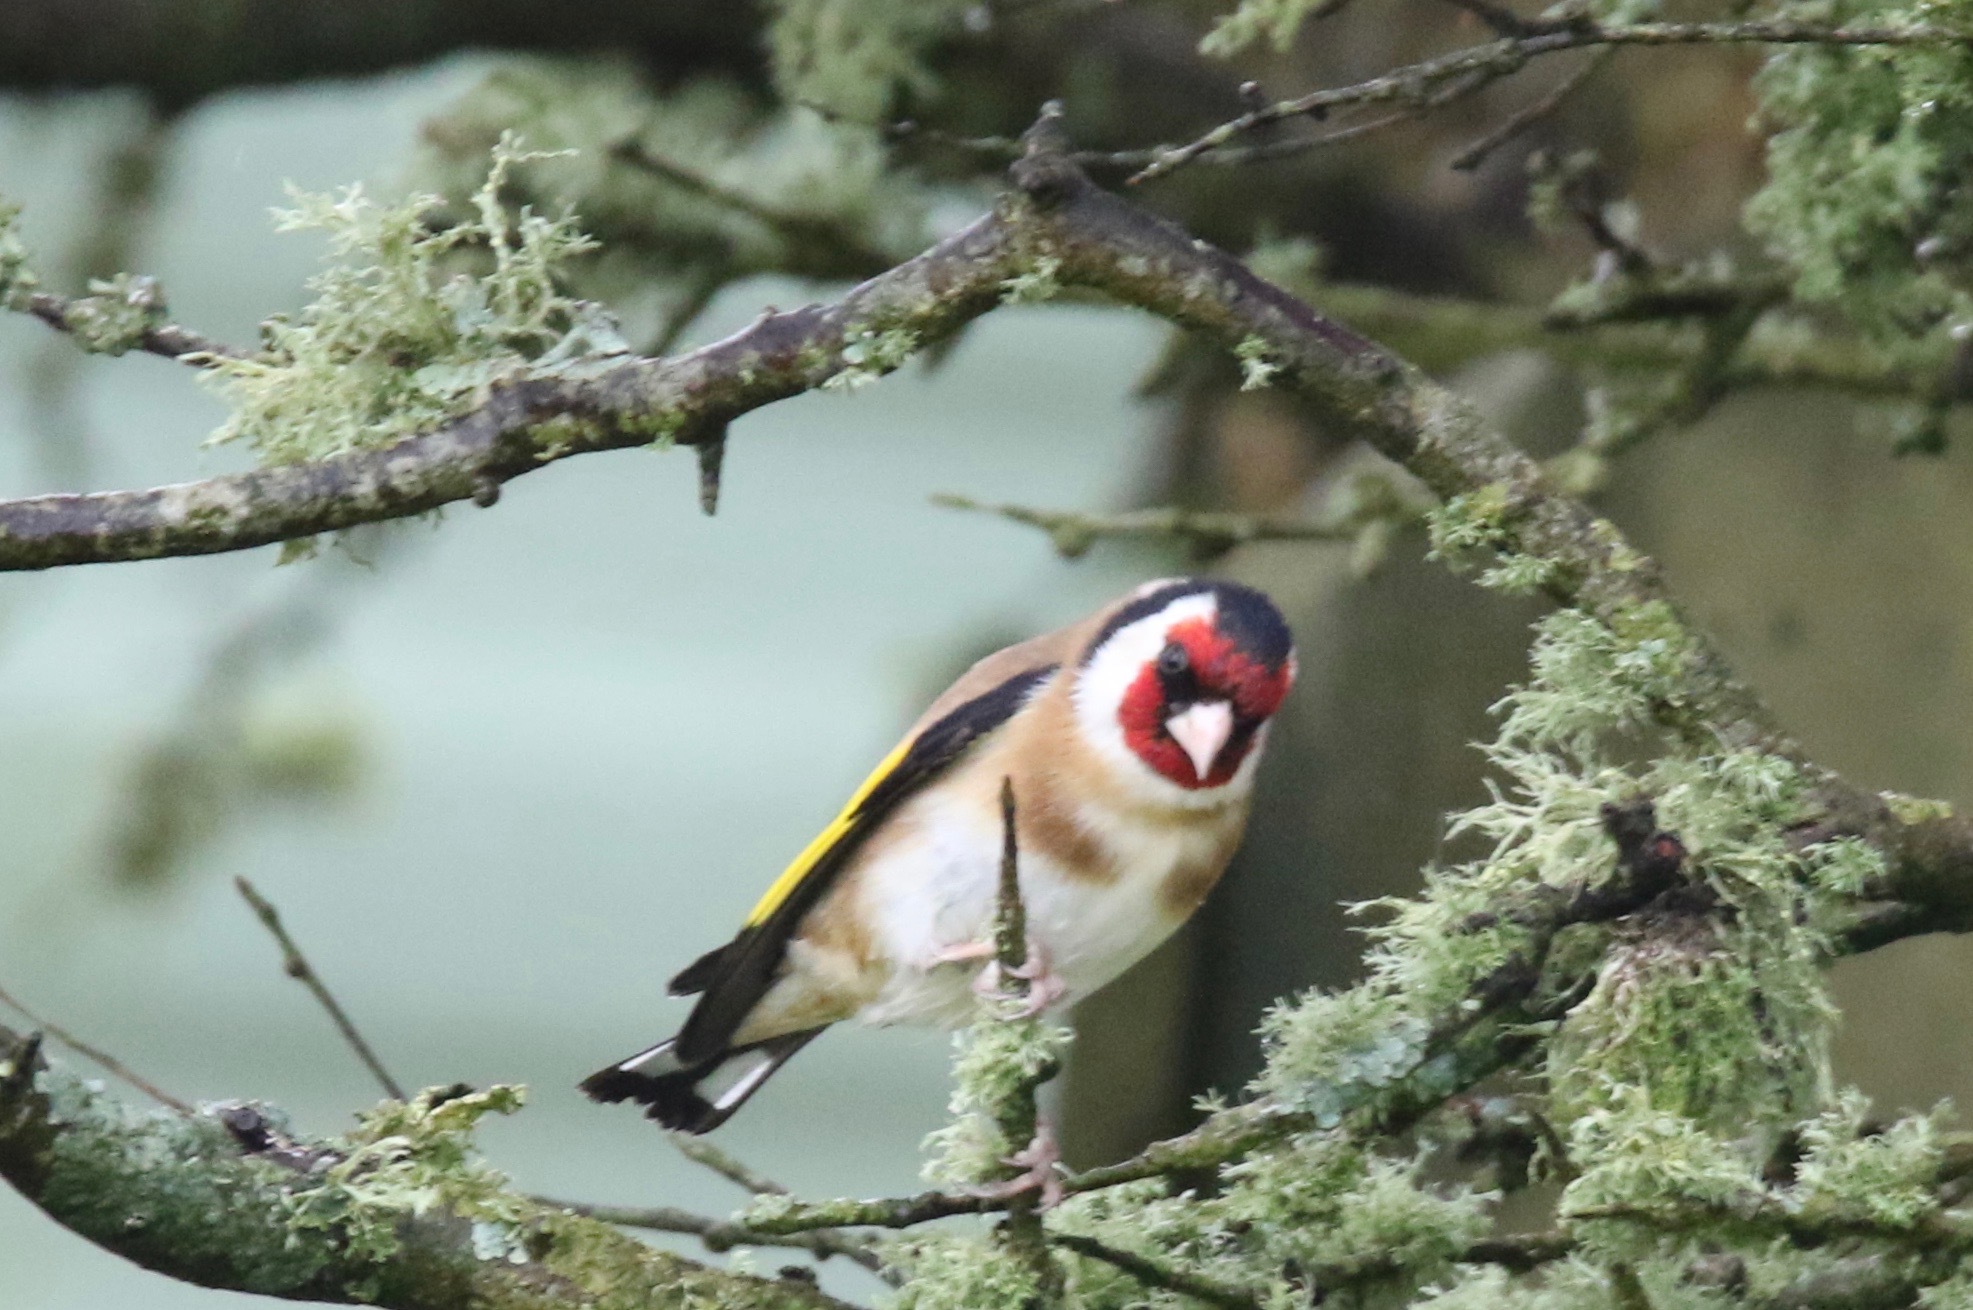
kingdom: Animalia
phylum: Chordata
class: Aves
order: Passeriformes
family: Fringillidae
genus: Carduelis
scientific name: Carduelis carduelis
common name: European goldfinch
